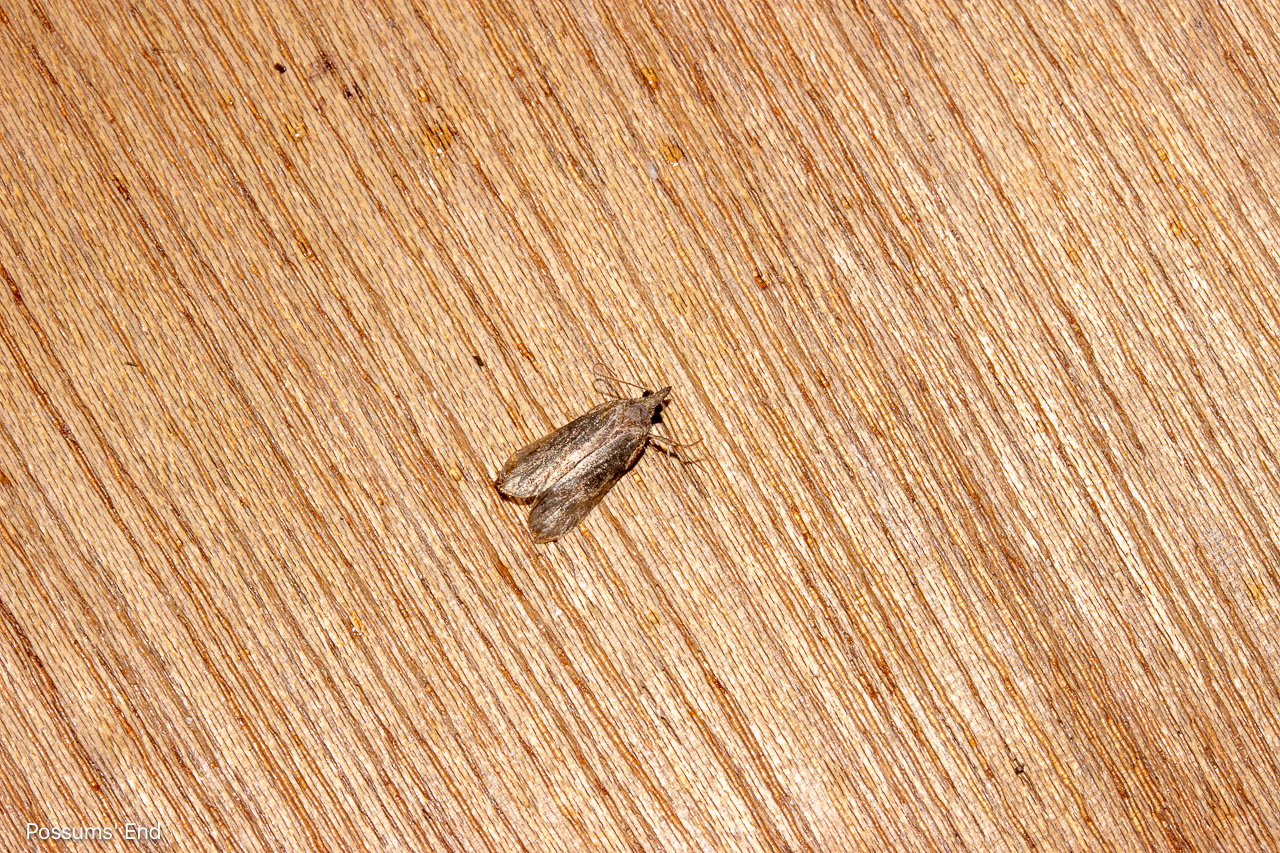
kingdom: Animalia
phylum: Arthropoda
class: Insecta
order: Lepidoptera
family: Tortricidae
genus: Prothelymna
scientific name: Prothelymna antiquana
